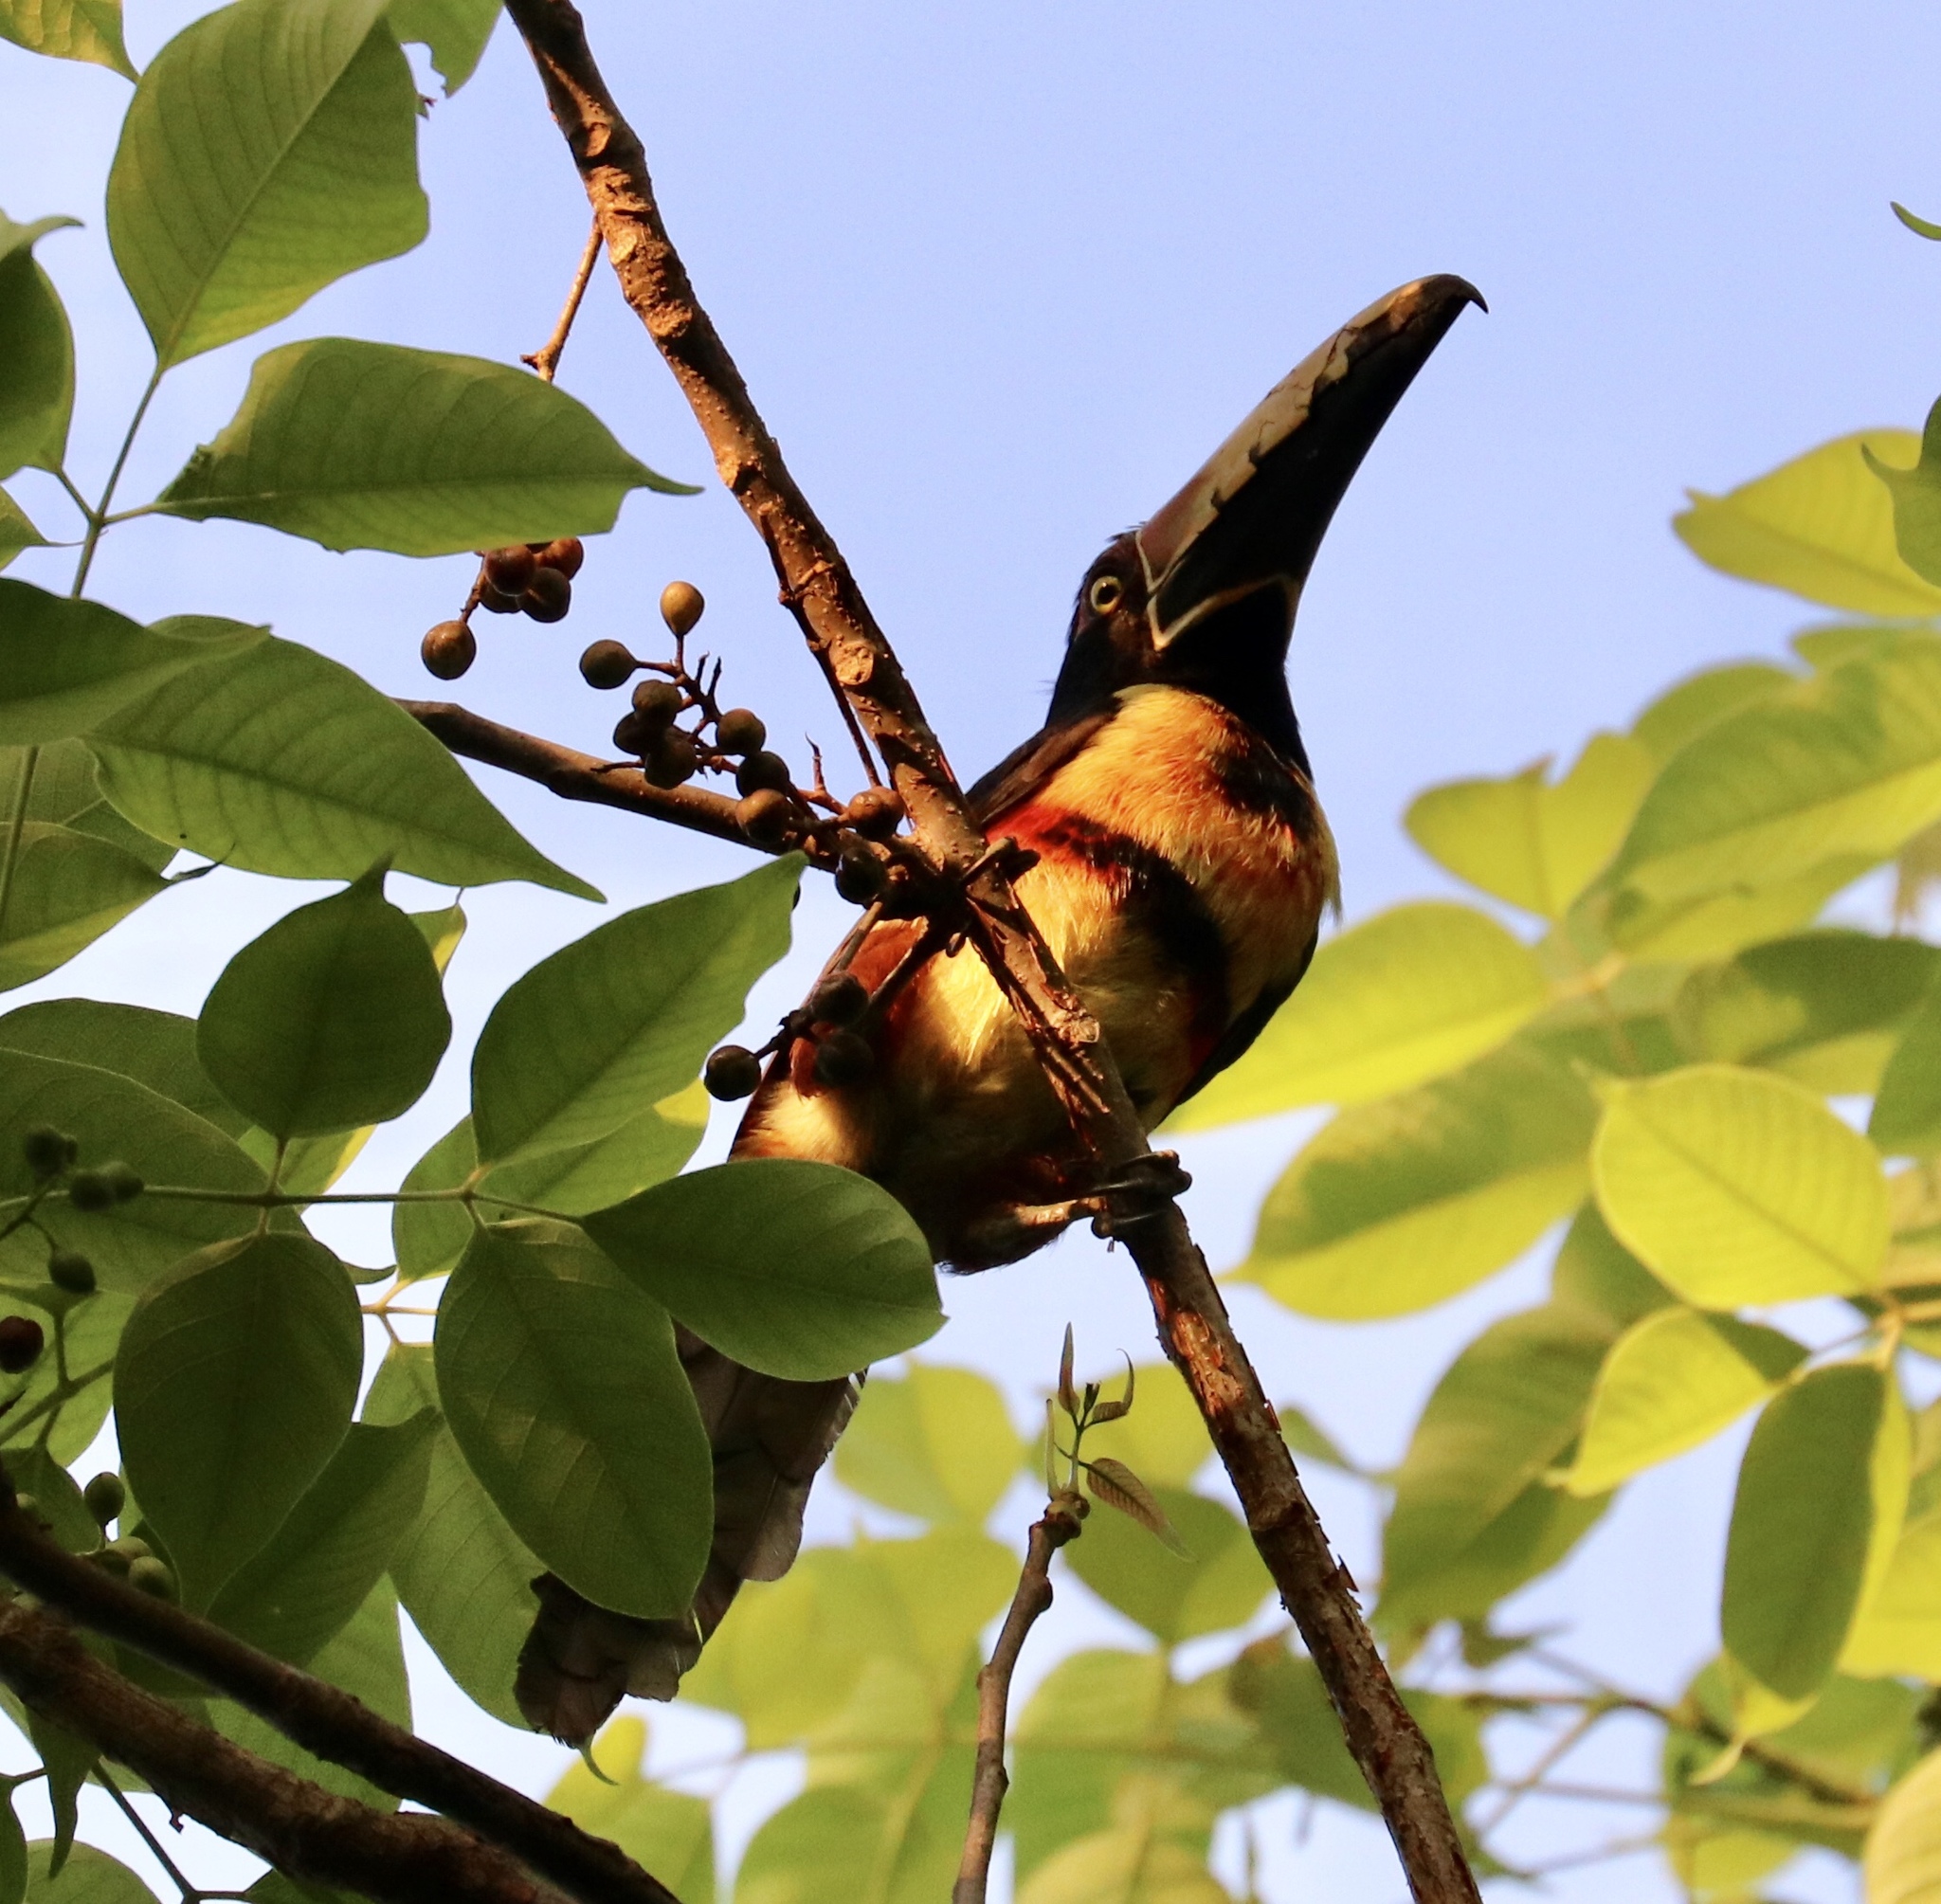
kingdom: Animalia
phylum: Chordata
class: Aves
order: Piciformes
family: Ramphastidae
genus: Pteroglossus
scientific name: Pteroglossus torquatus
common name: Collared aracari
